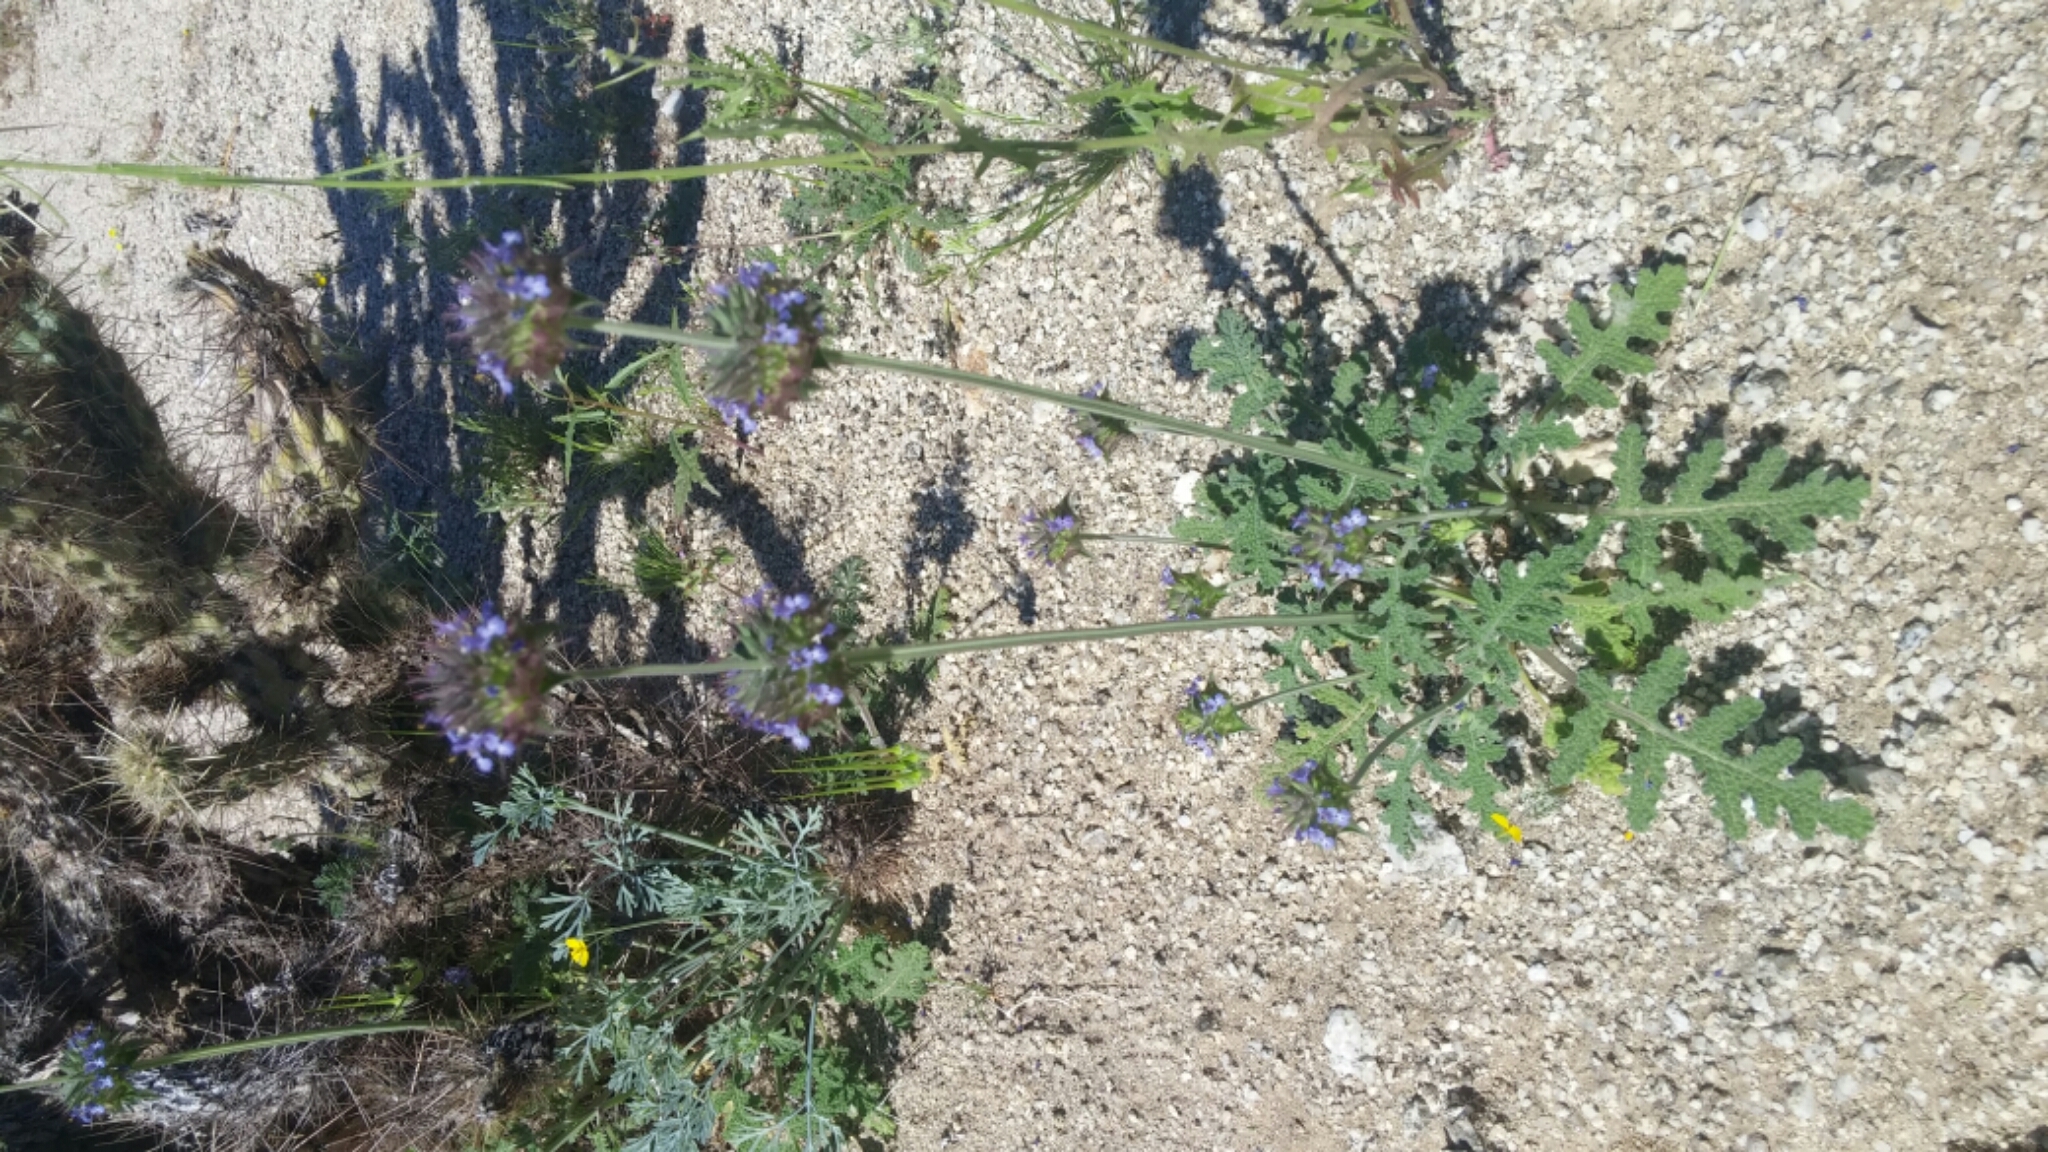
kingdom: Plantae
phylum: Tracheophyta
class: Magnoliopsida
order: Lamiales
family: Lamiaceae
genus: Salvia
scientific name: Salvia columbariae
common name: Chia
